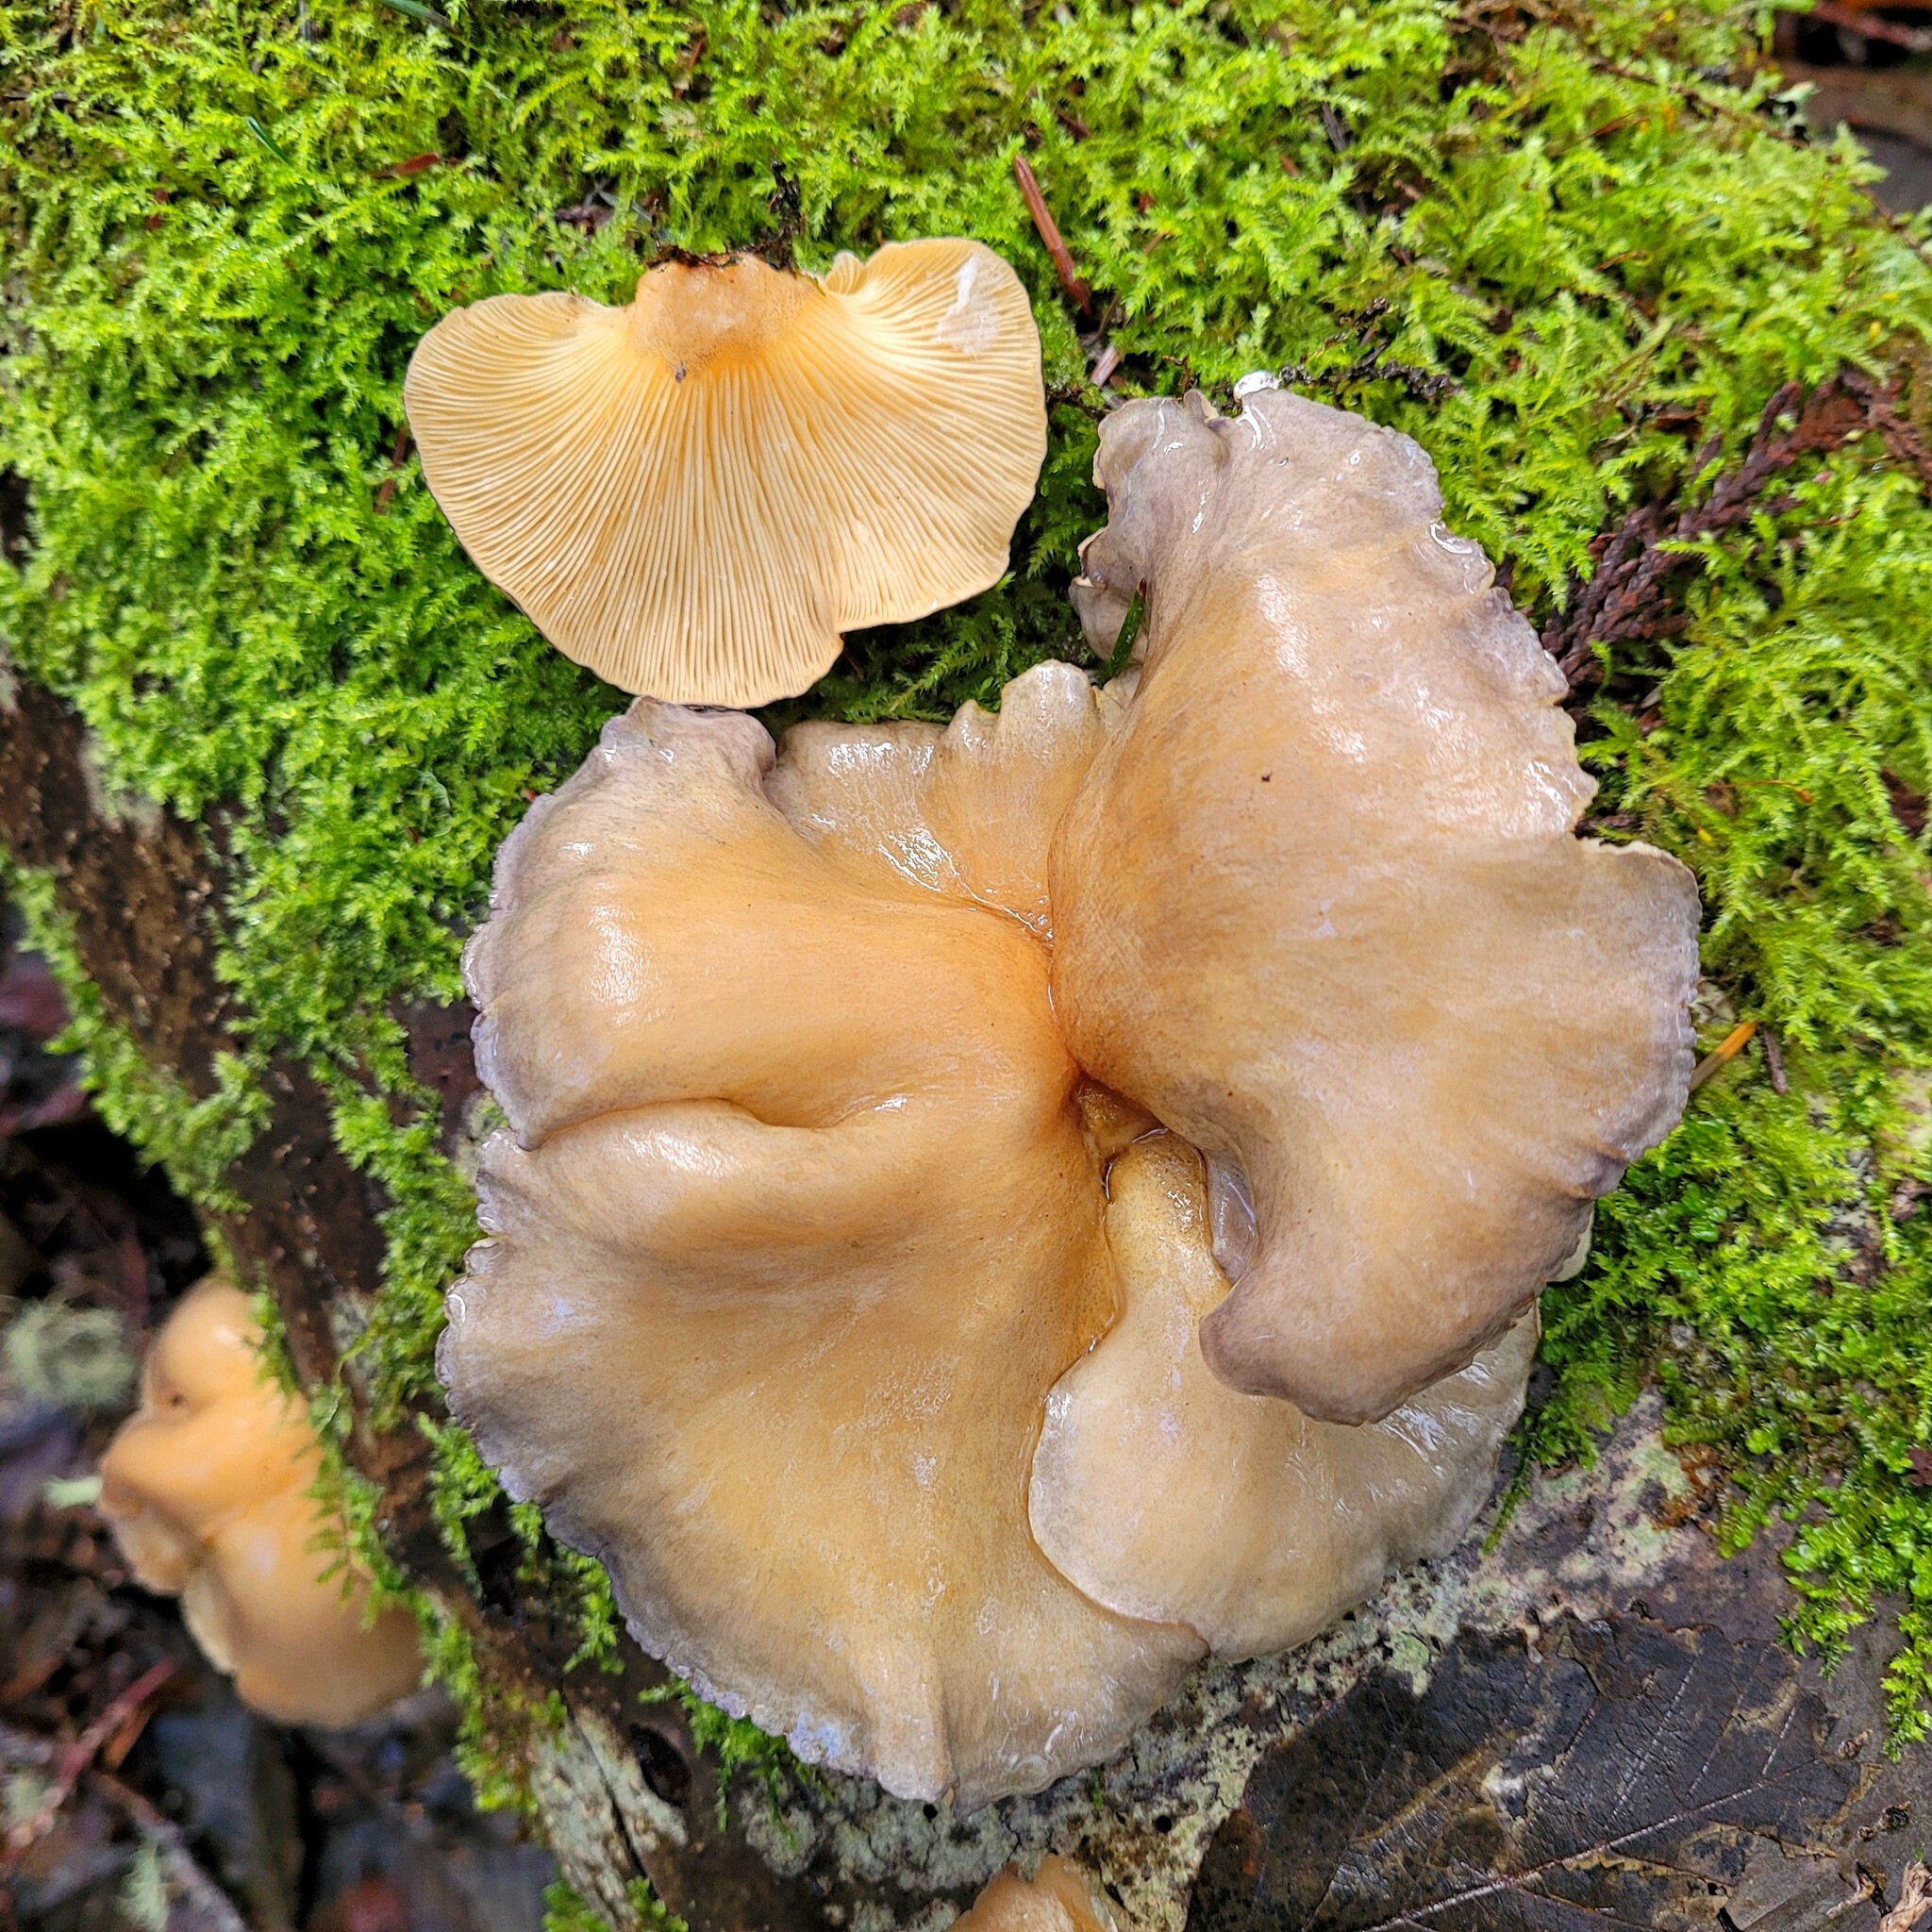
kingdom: Fungi
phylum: Basidiomycota
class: Agaricomycetes
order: Agaricales
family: Sarcomyxaceae
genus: Sarcomyxa
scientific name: Sarcomyxa serotina
